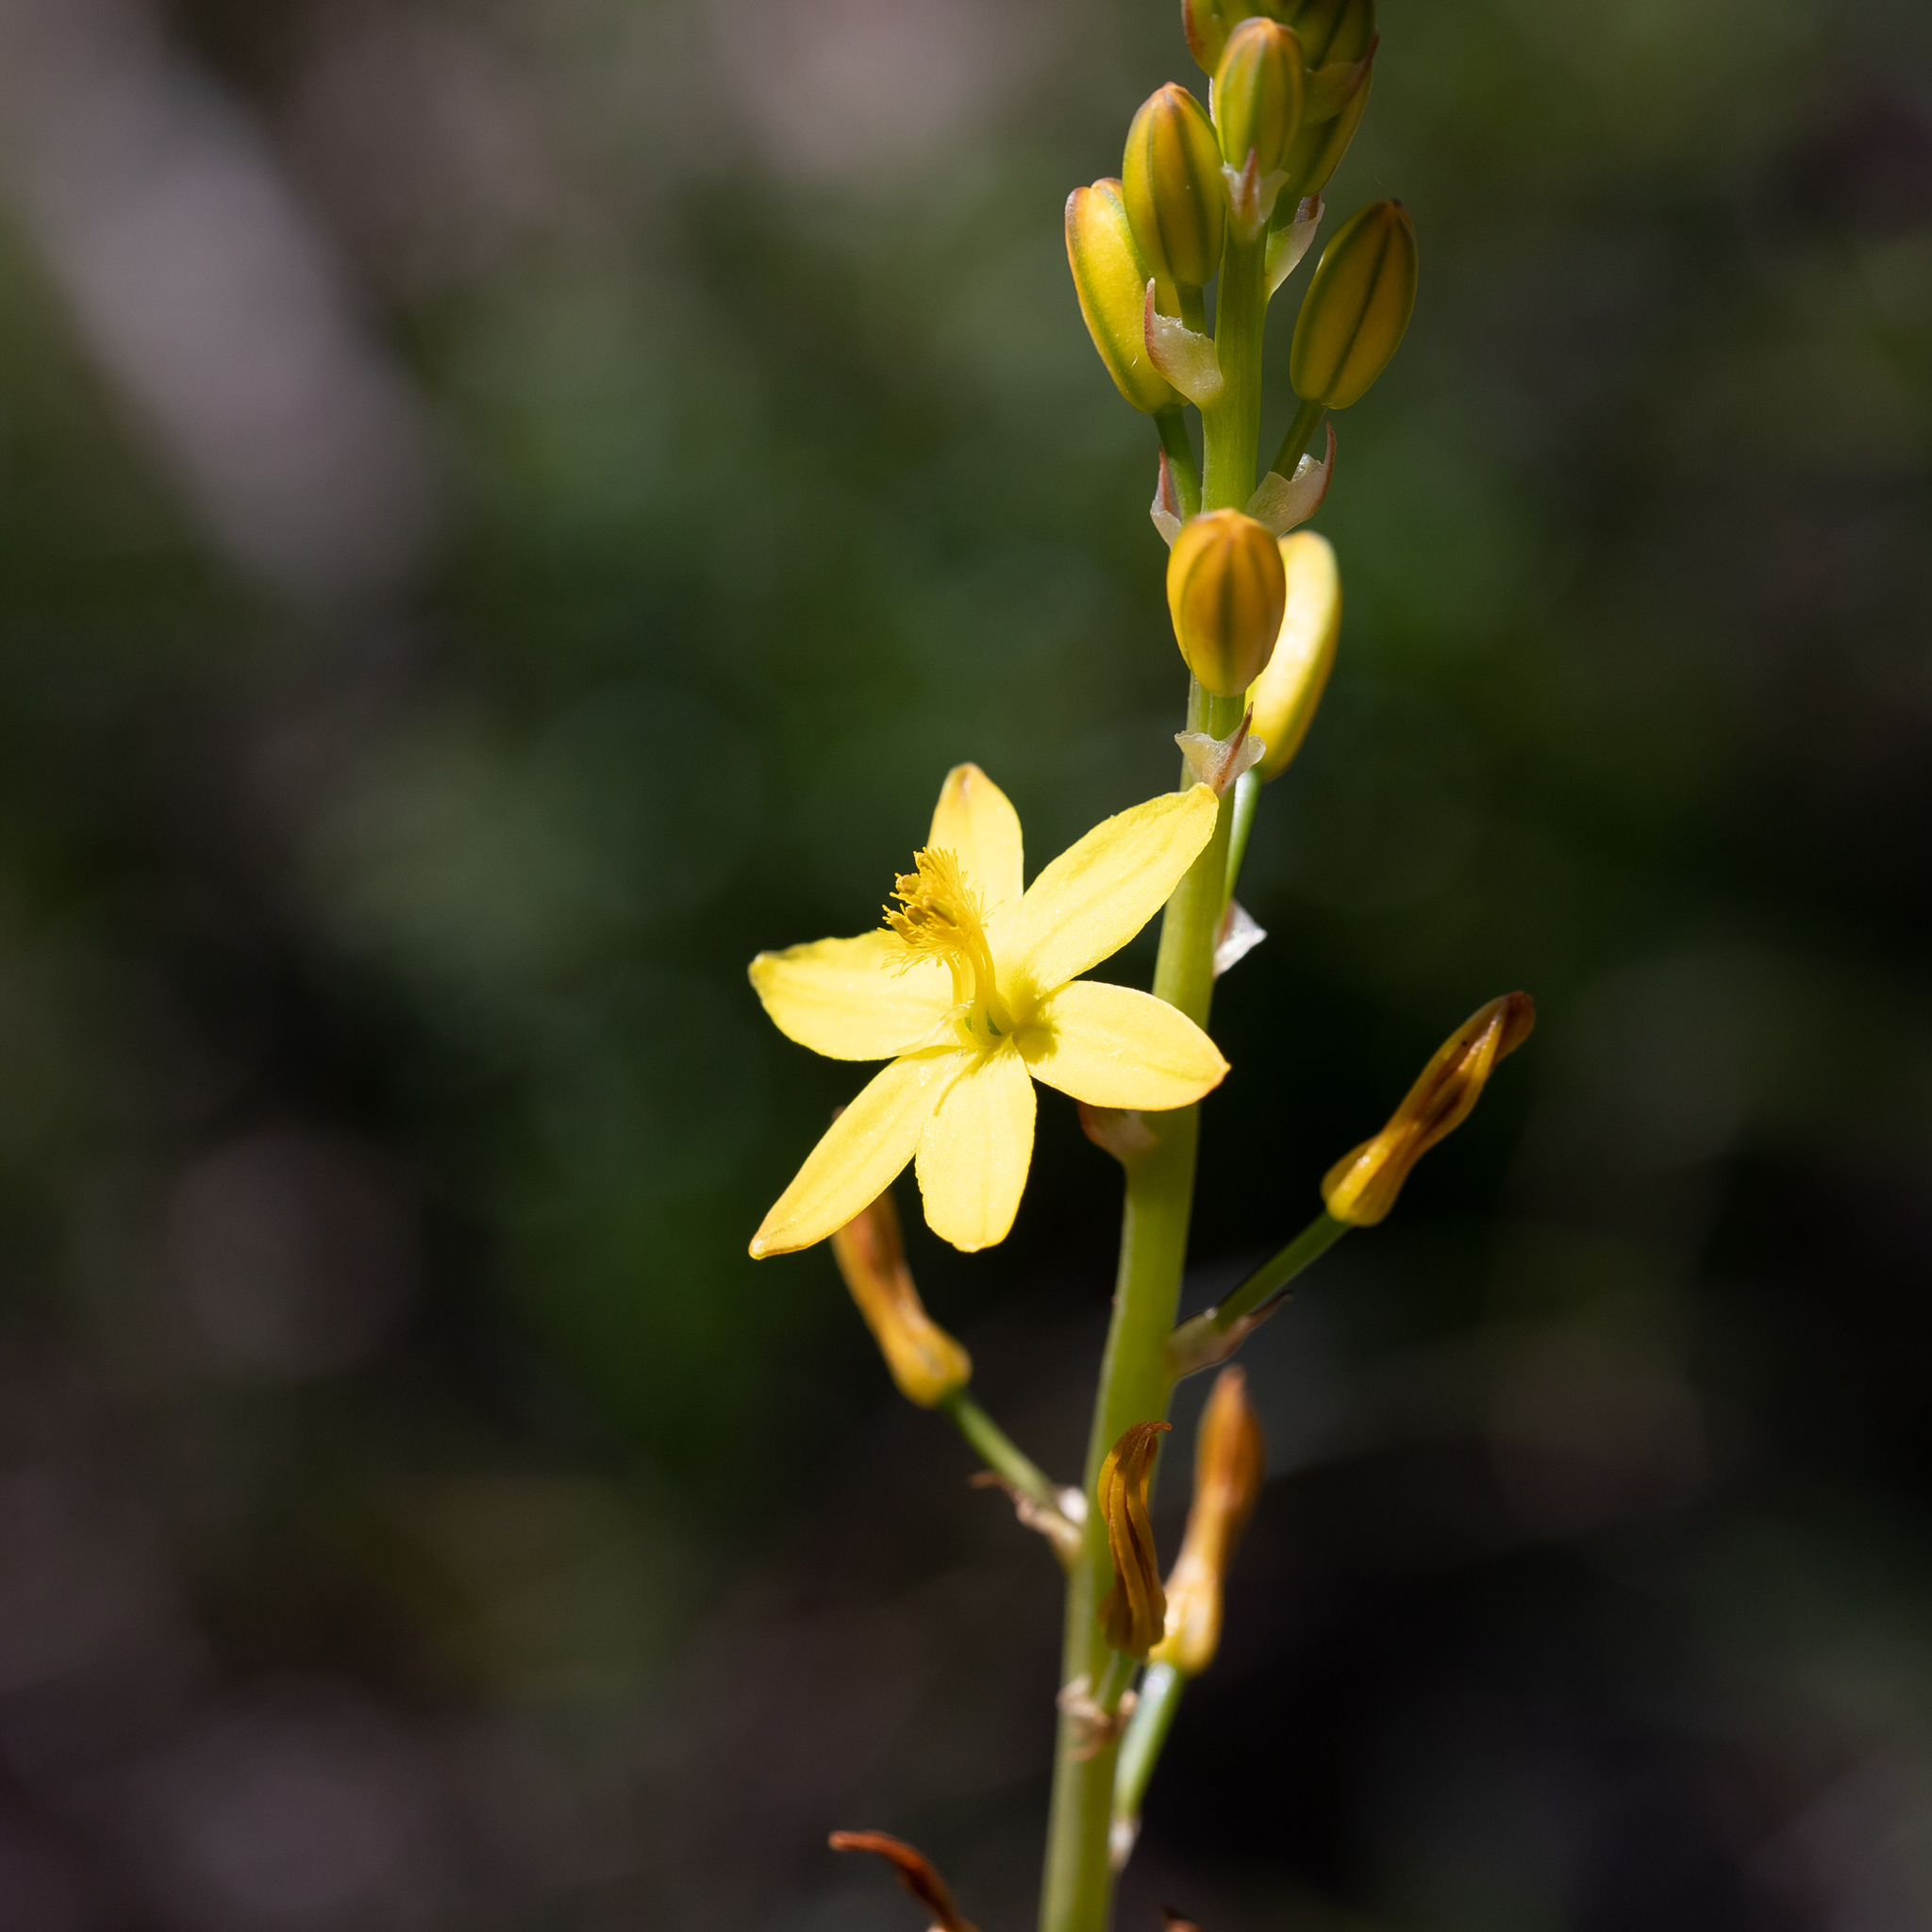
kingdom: Plantae
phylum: Tracheophyta
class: Liliopsida
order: Asparagales
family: Asphodelaceae
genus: Bulbine
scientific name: Bulbine bulbosa
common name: Golden-lily
